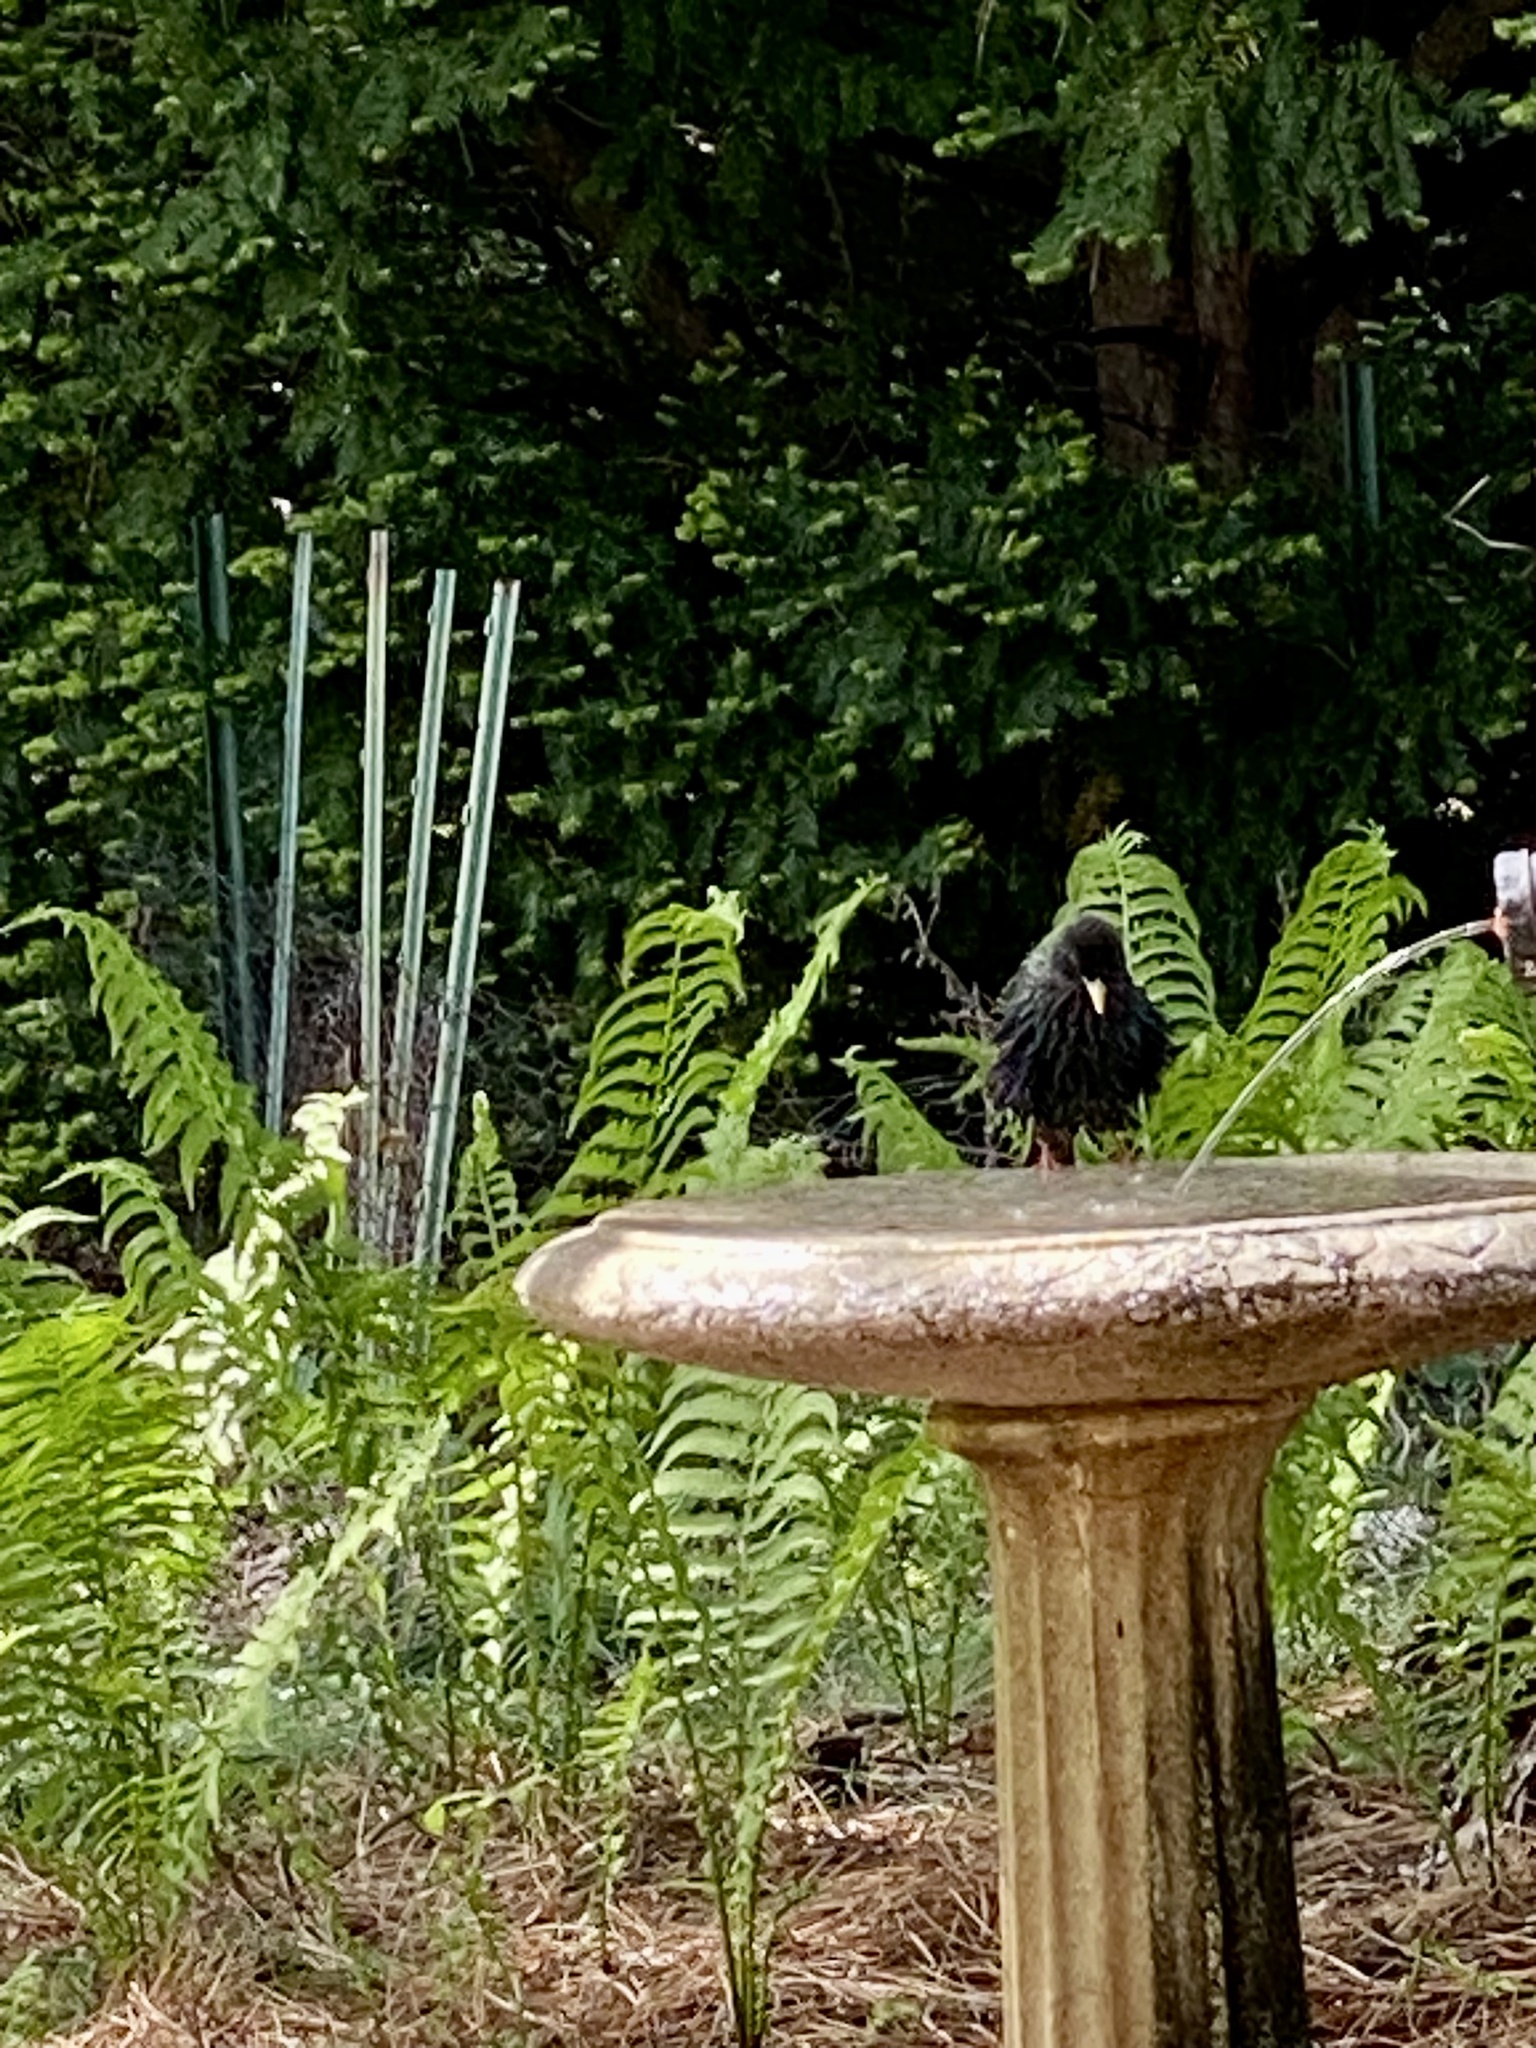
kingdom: Animalia
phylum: Chordata
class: Aves
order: Passeriformes
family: Sturnidae
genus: Sturnus
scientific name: Sturnus vulgaris
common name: Common starling
